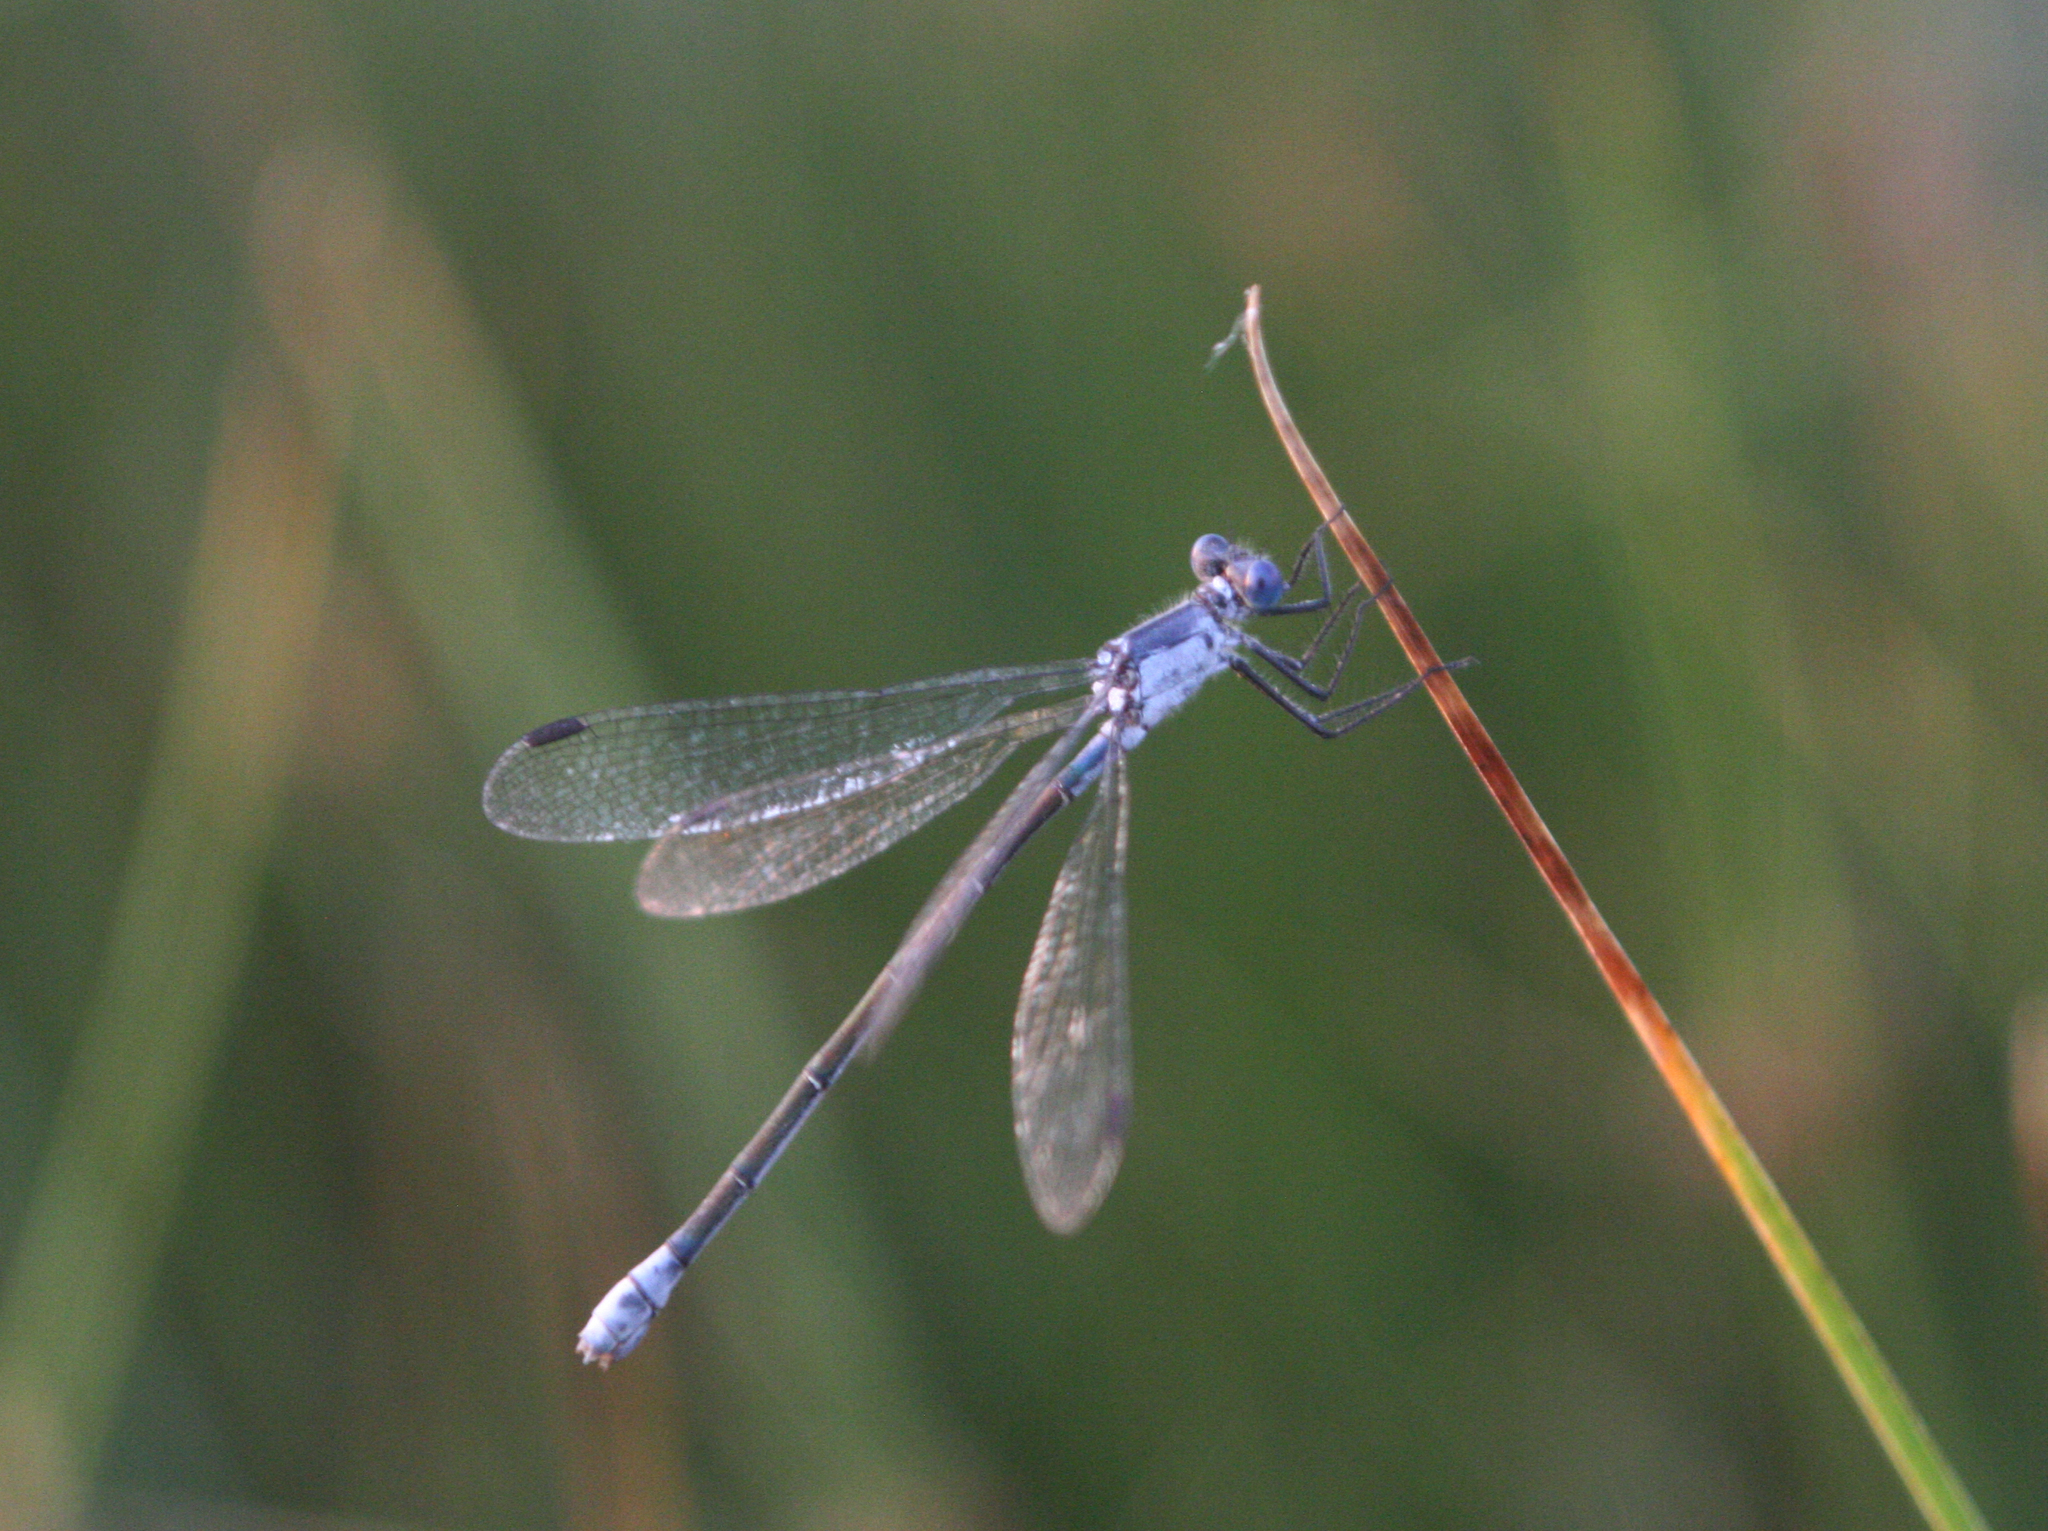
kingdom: Animalia
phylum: Arthropoda
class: Insecta
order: Odonata
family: Lestidae
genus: Lestes
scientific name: Lestes macrostigma
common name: Dark spreadwing
